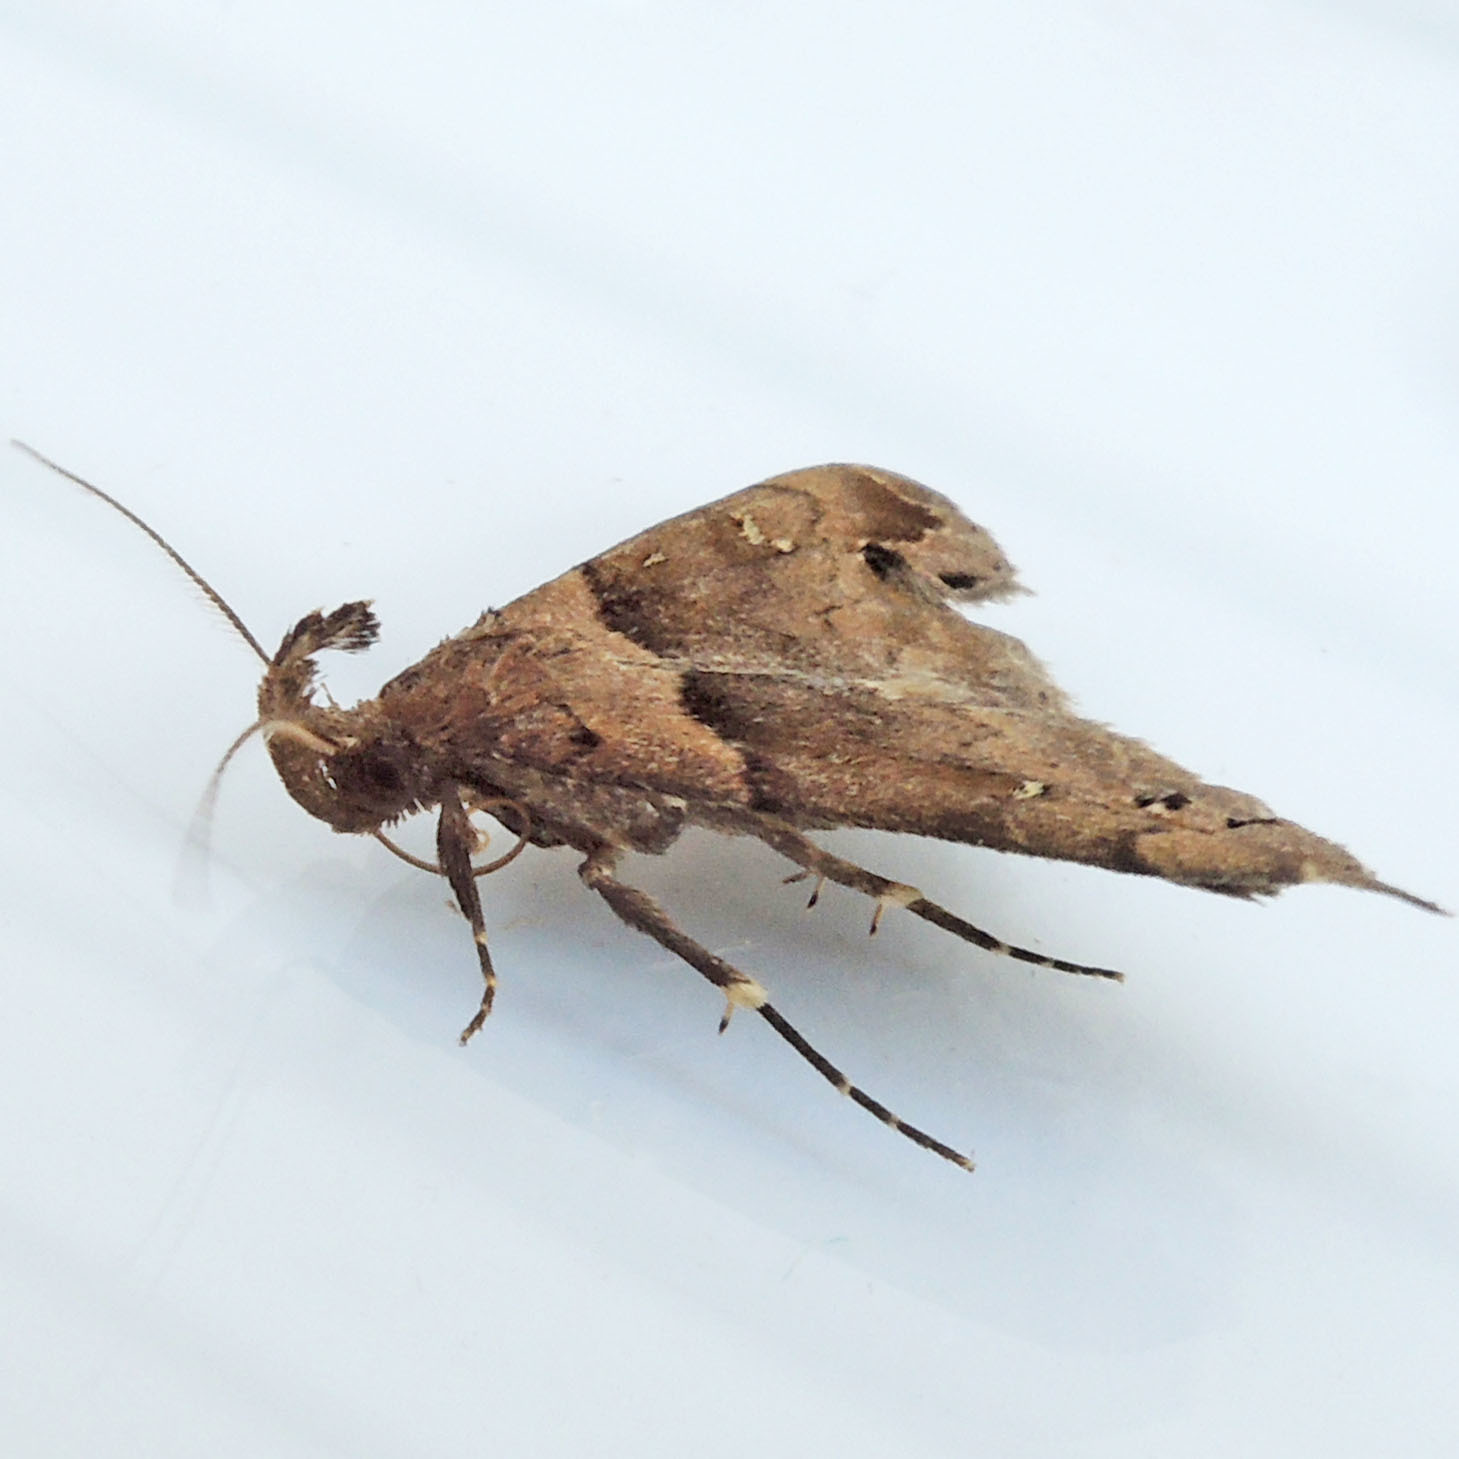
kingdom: Animalia
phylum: Arthropoda
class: Insecta
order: Lepidoptera
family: Erebidae
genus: Lascoria
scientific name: Lascoria ambigualis
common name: Ambiguous moth
